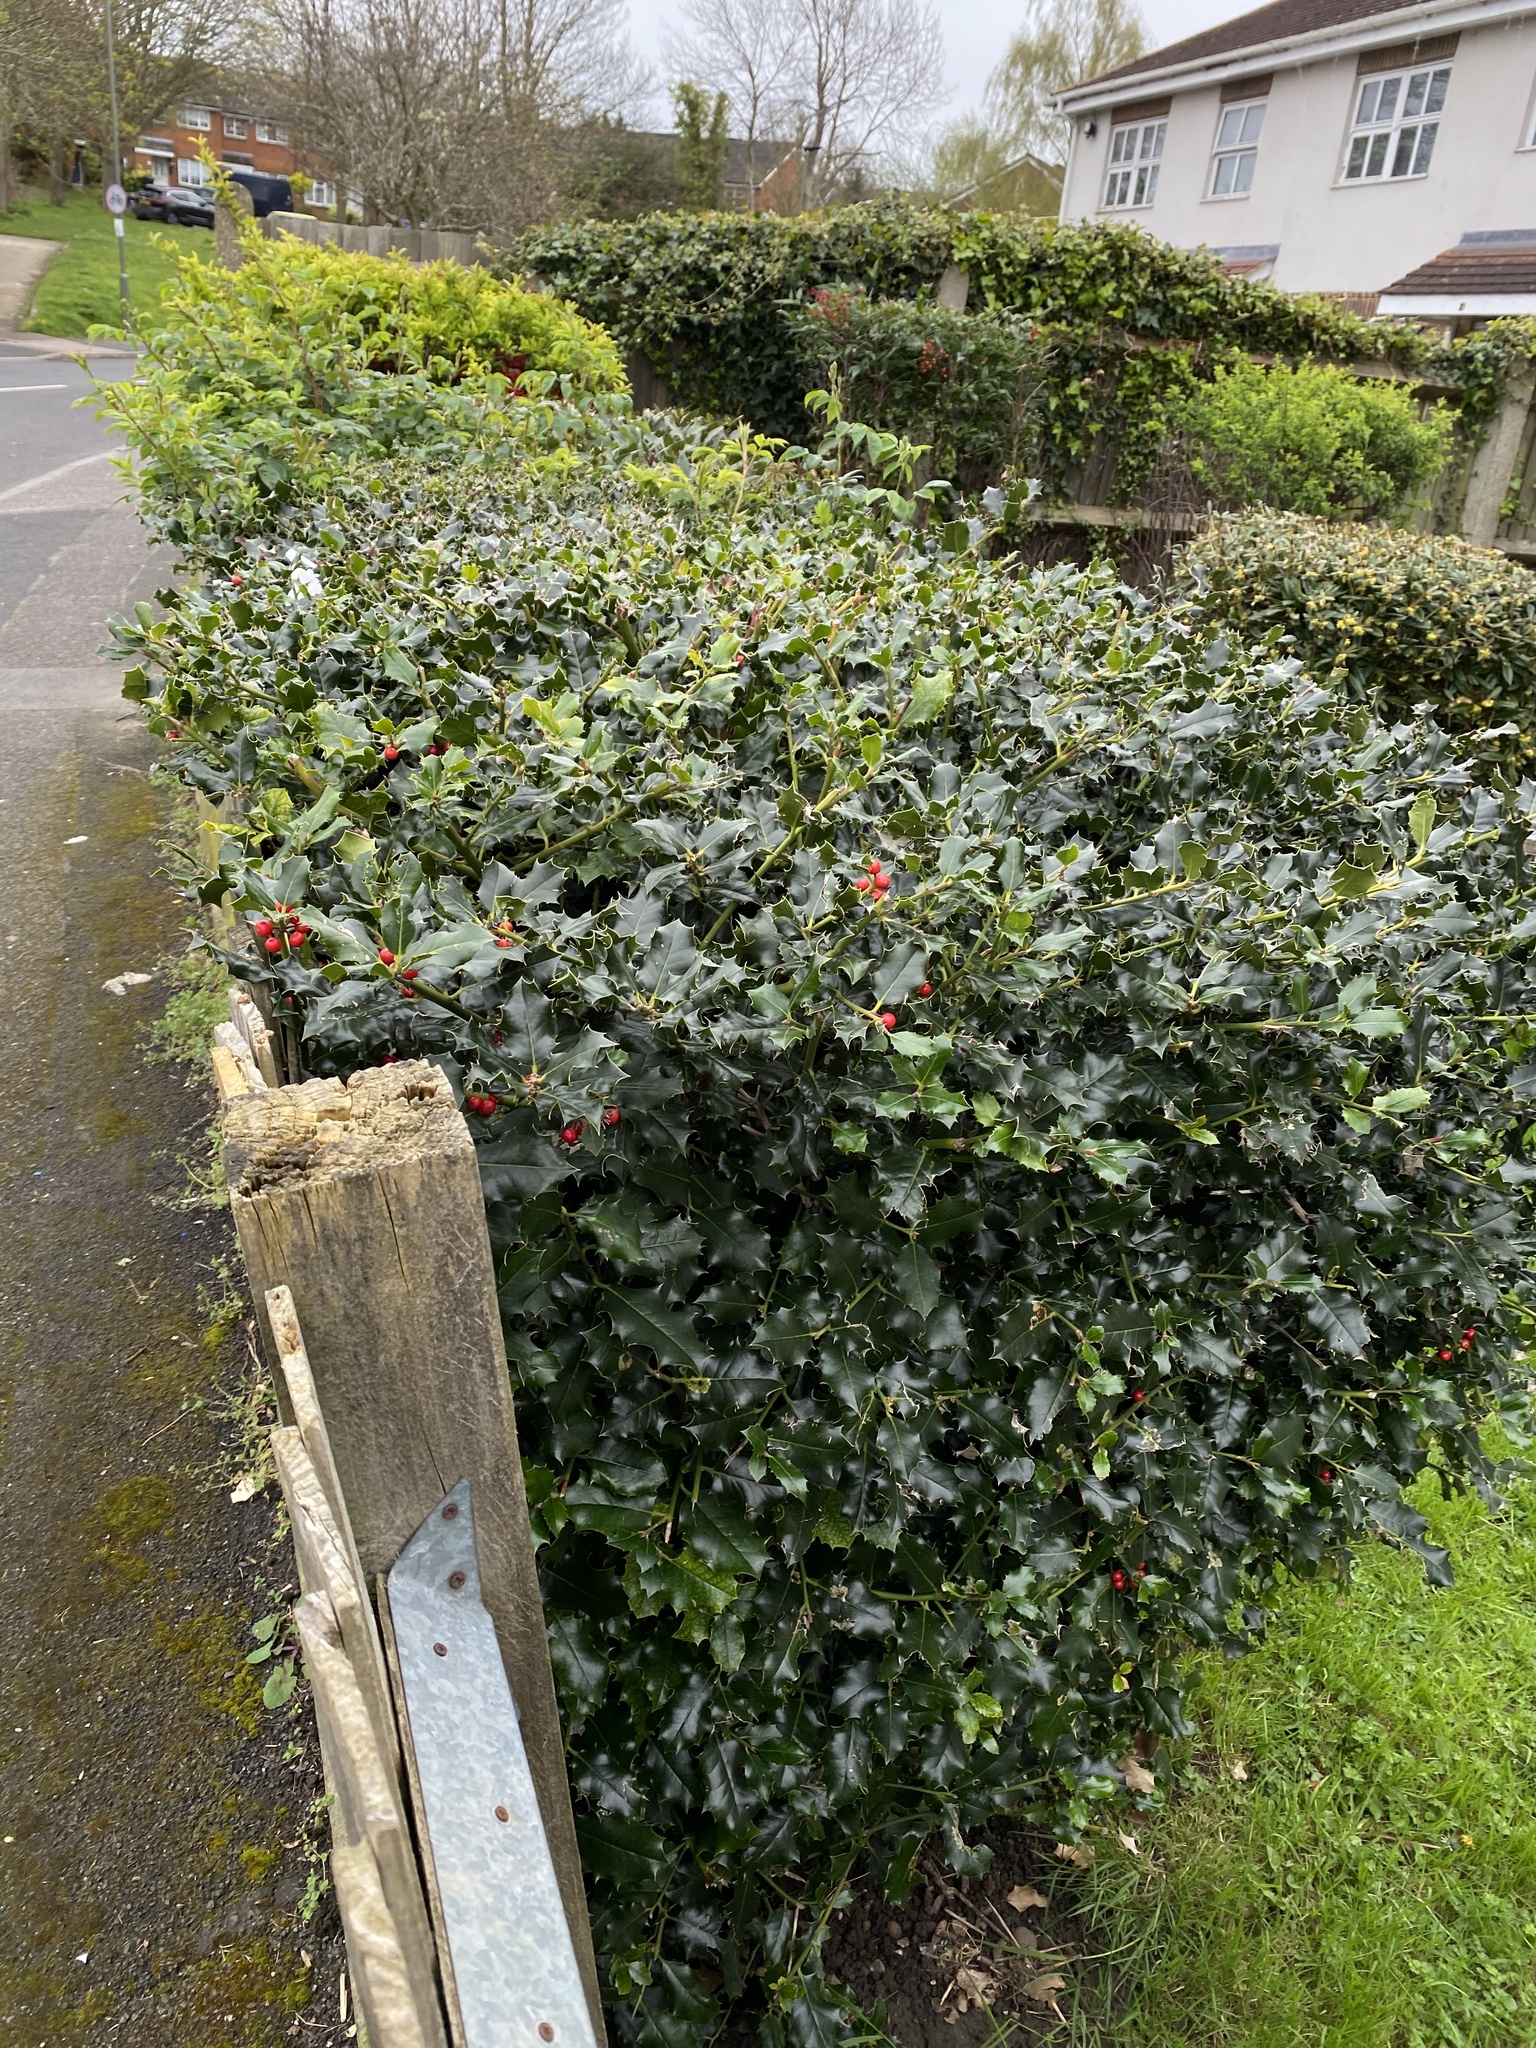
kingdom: Plantae
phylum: Tracheophyta
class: Magnoliopsida
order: Aquifoliales
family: Aquifoliaceae
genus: Ilex
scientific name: Ilex aquifolium
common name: English holly
